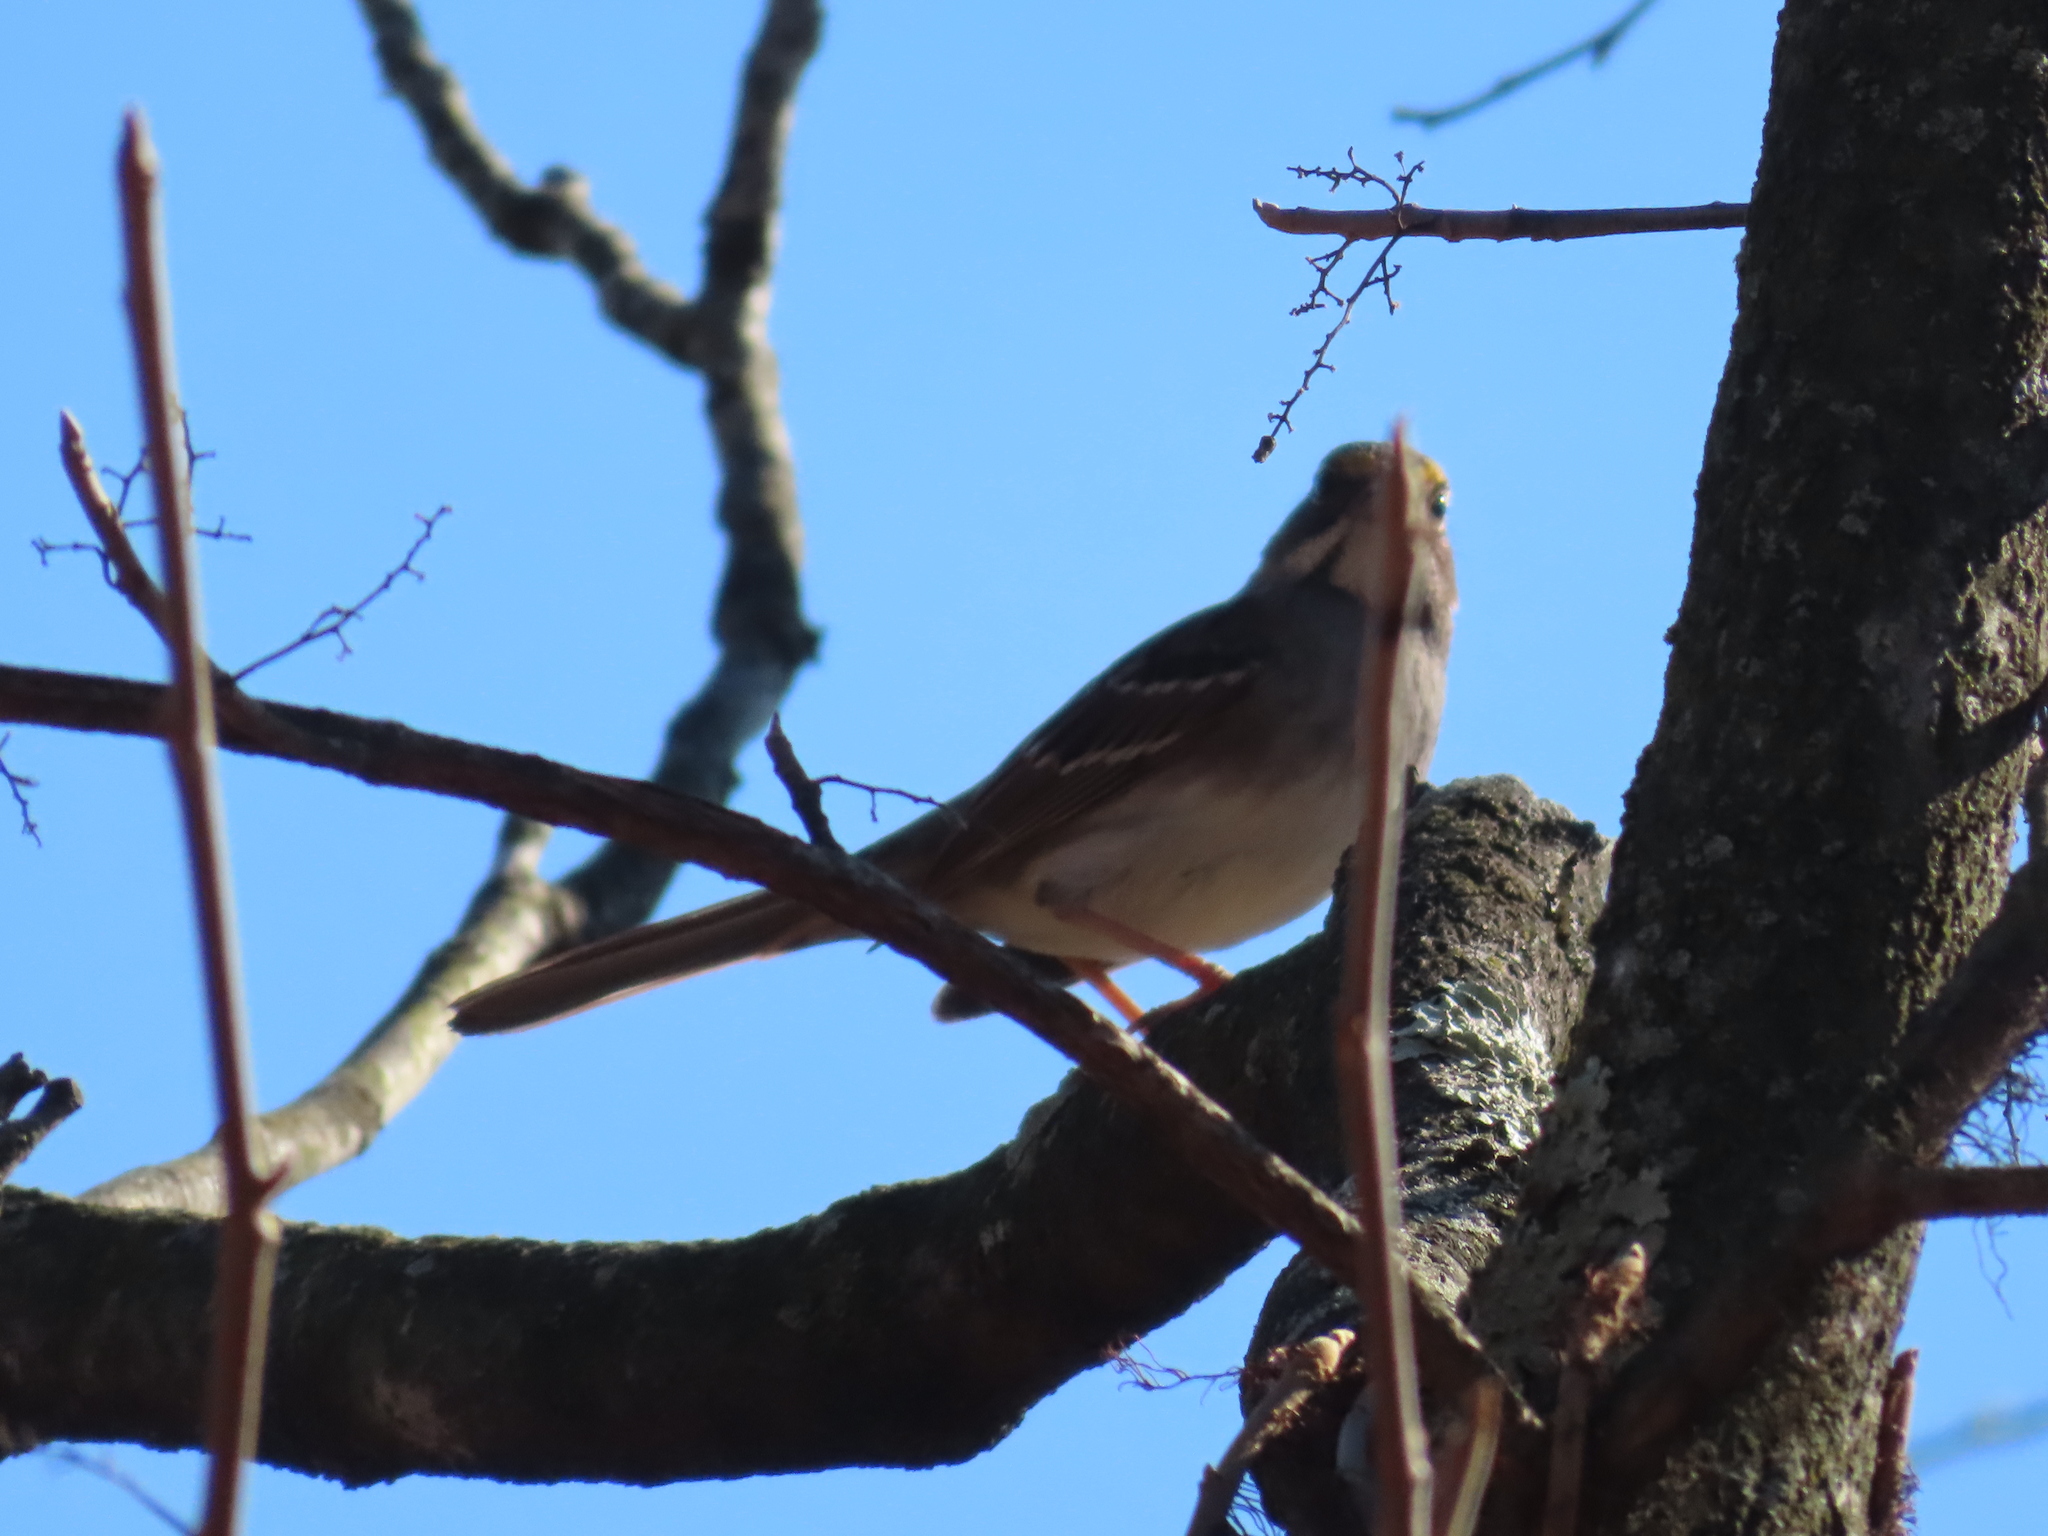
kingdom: Animalia
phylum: Chordata
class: Aves
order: Passeriformes
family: Passerellidae
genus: Zonotrichia
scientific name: Zonotrichia albicollis
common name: White-throated sparrow
